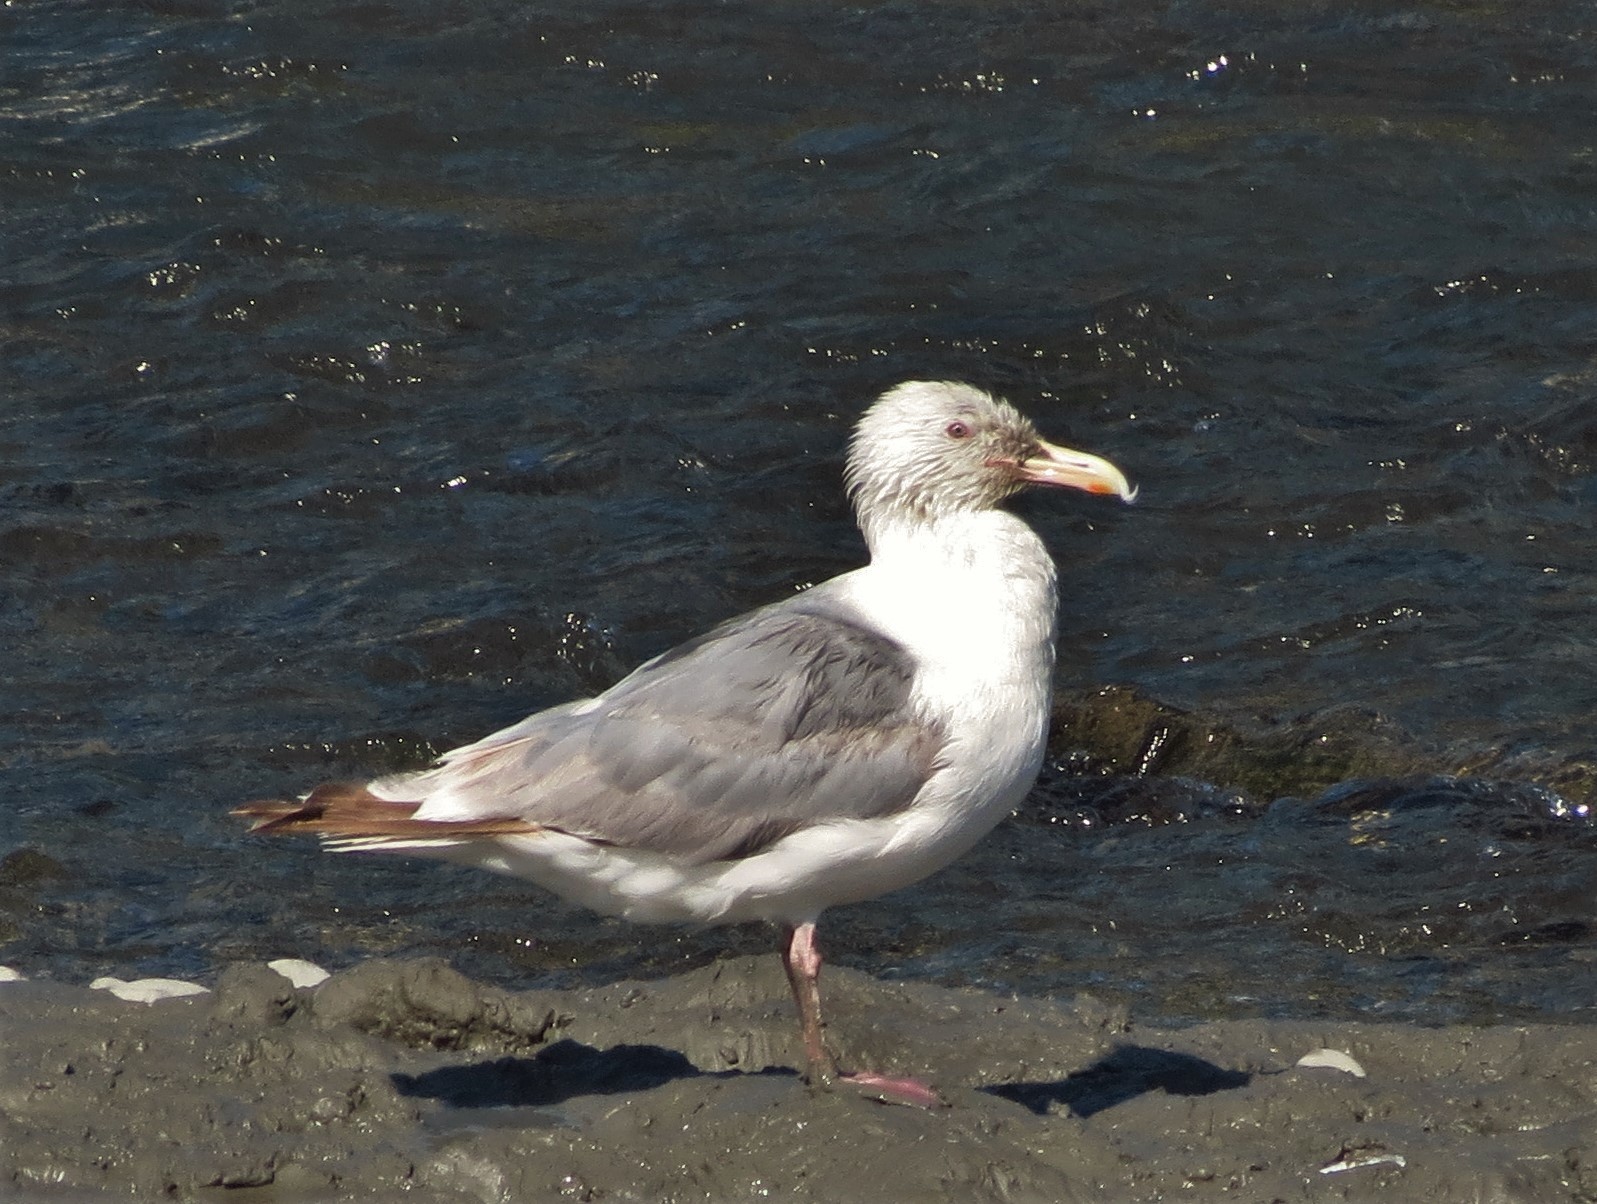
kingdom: Animalia
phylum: Chordata
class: Aves
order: Charadriiformes
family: Laridae
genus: Larus
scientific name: Larus
